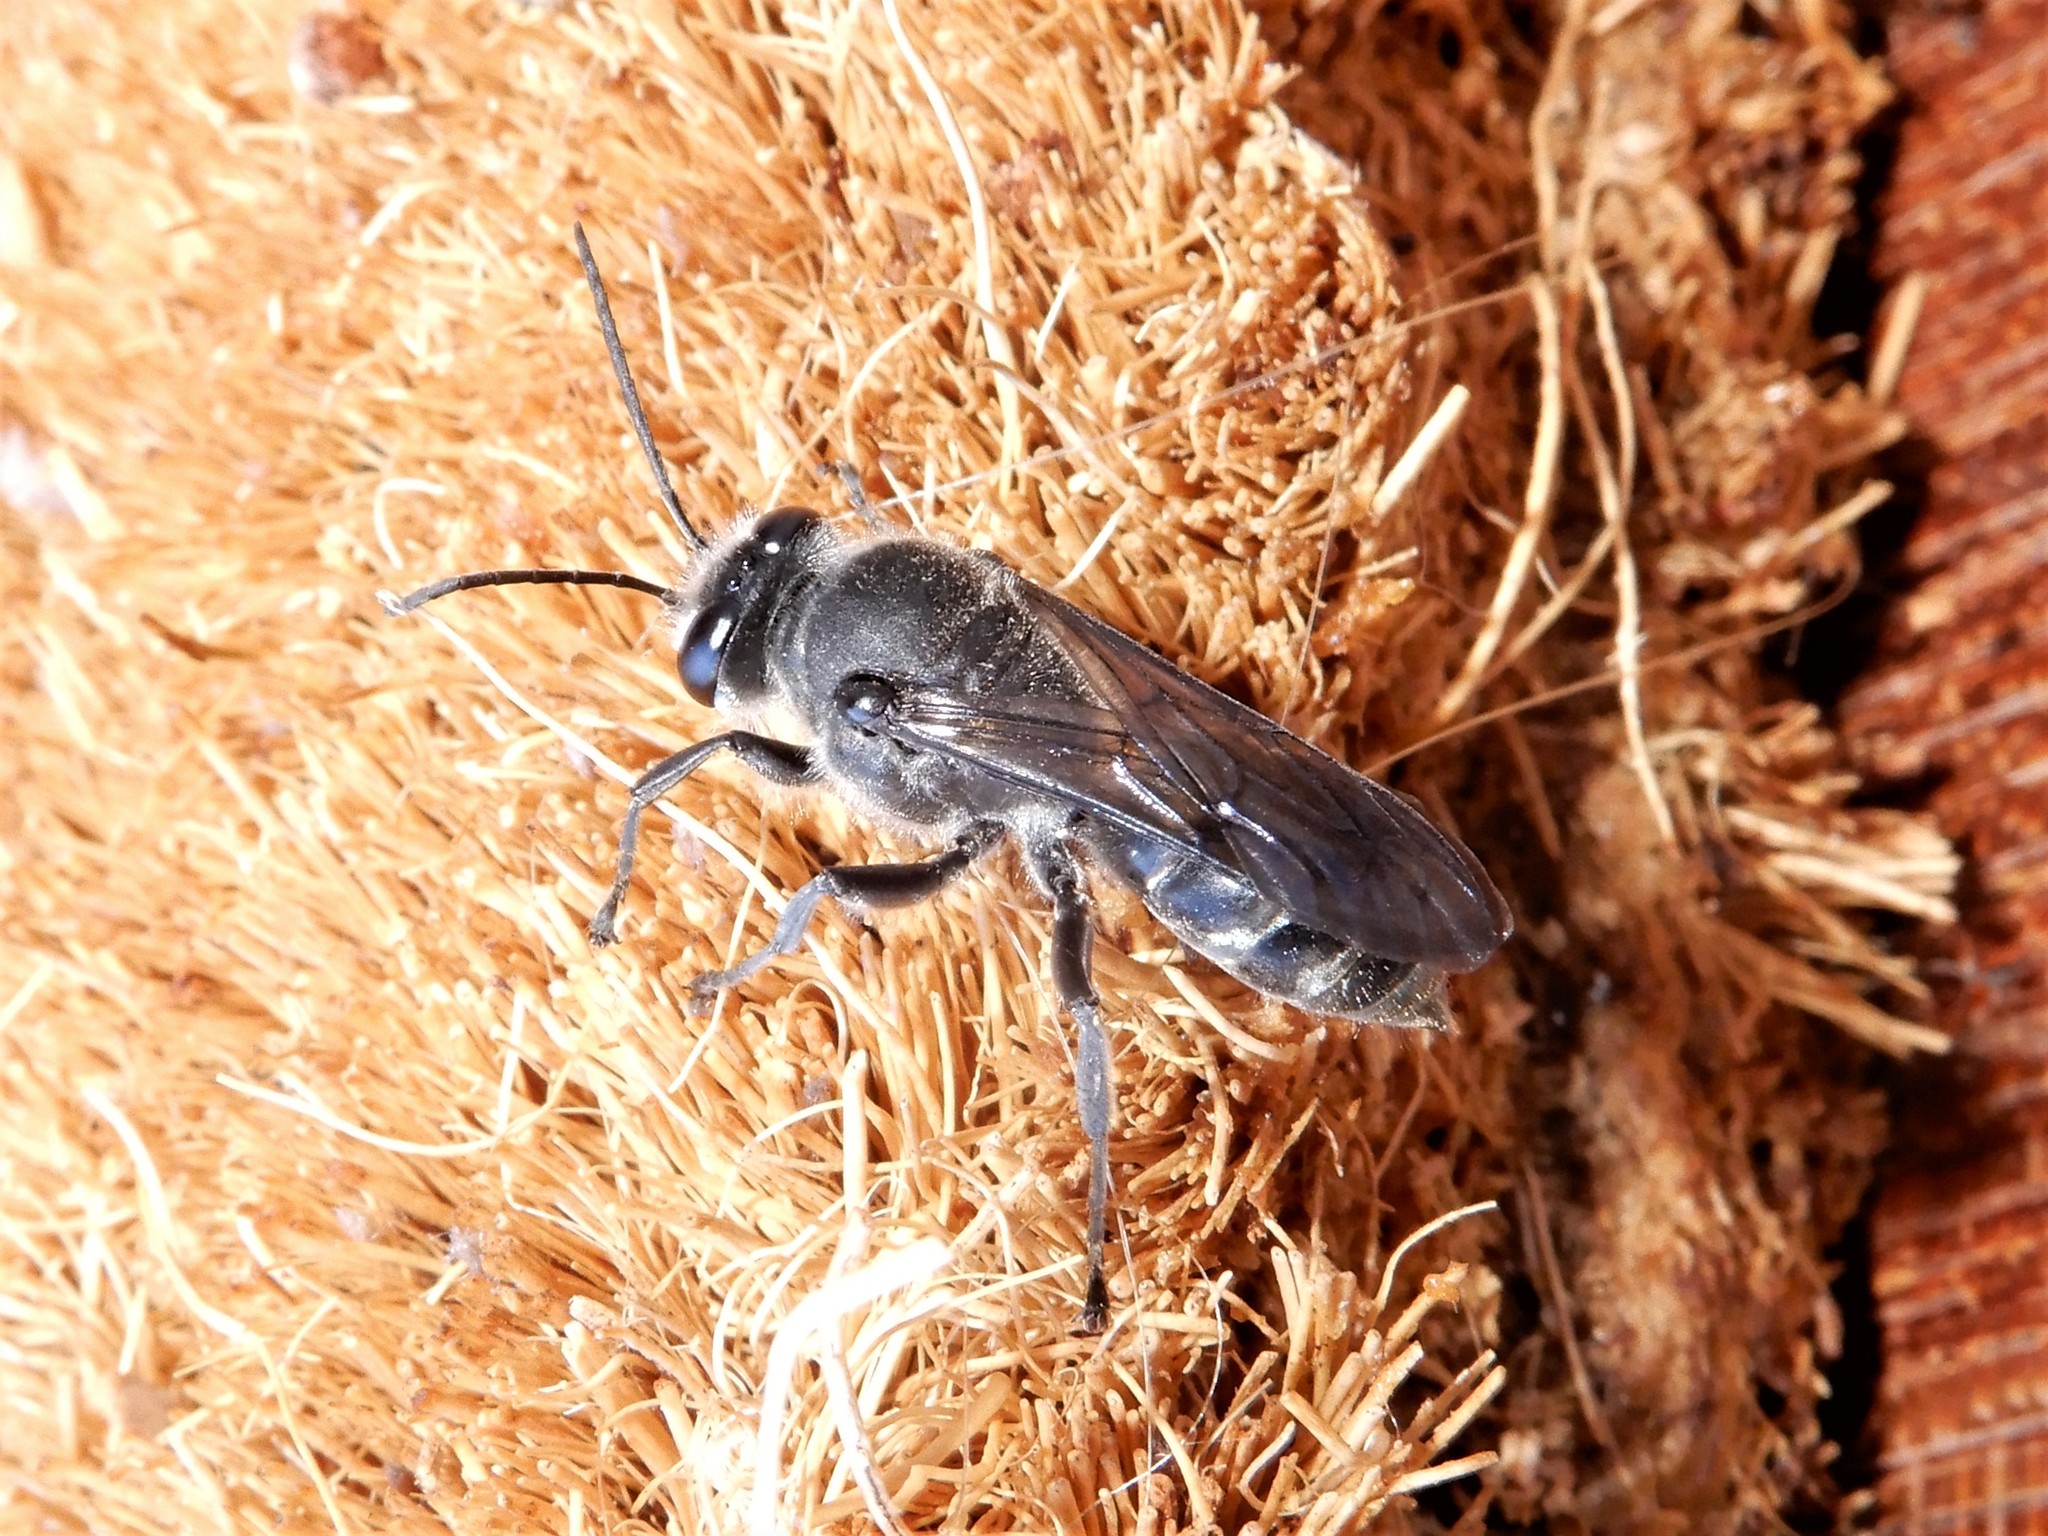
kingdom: Animalia
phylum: Arthropoda
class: Insecta
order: Hymenoptera
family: Crabronidae
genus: Pison
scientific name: Pison spinolae
